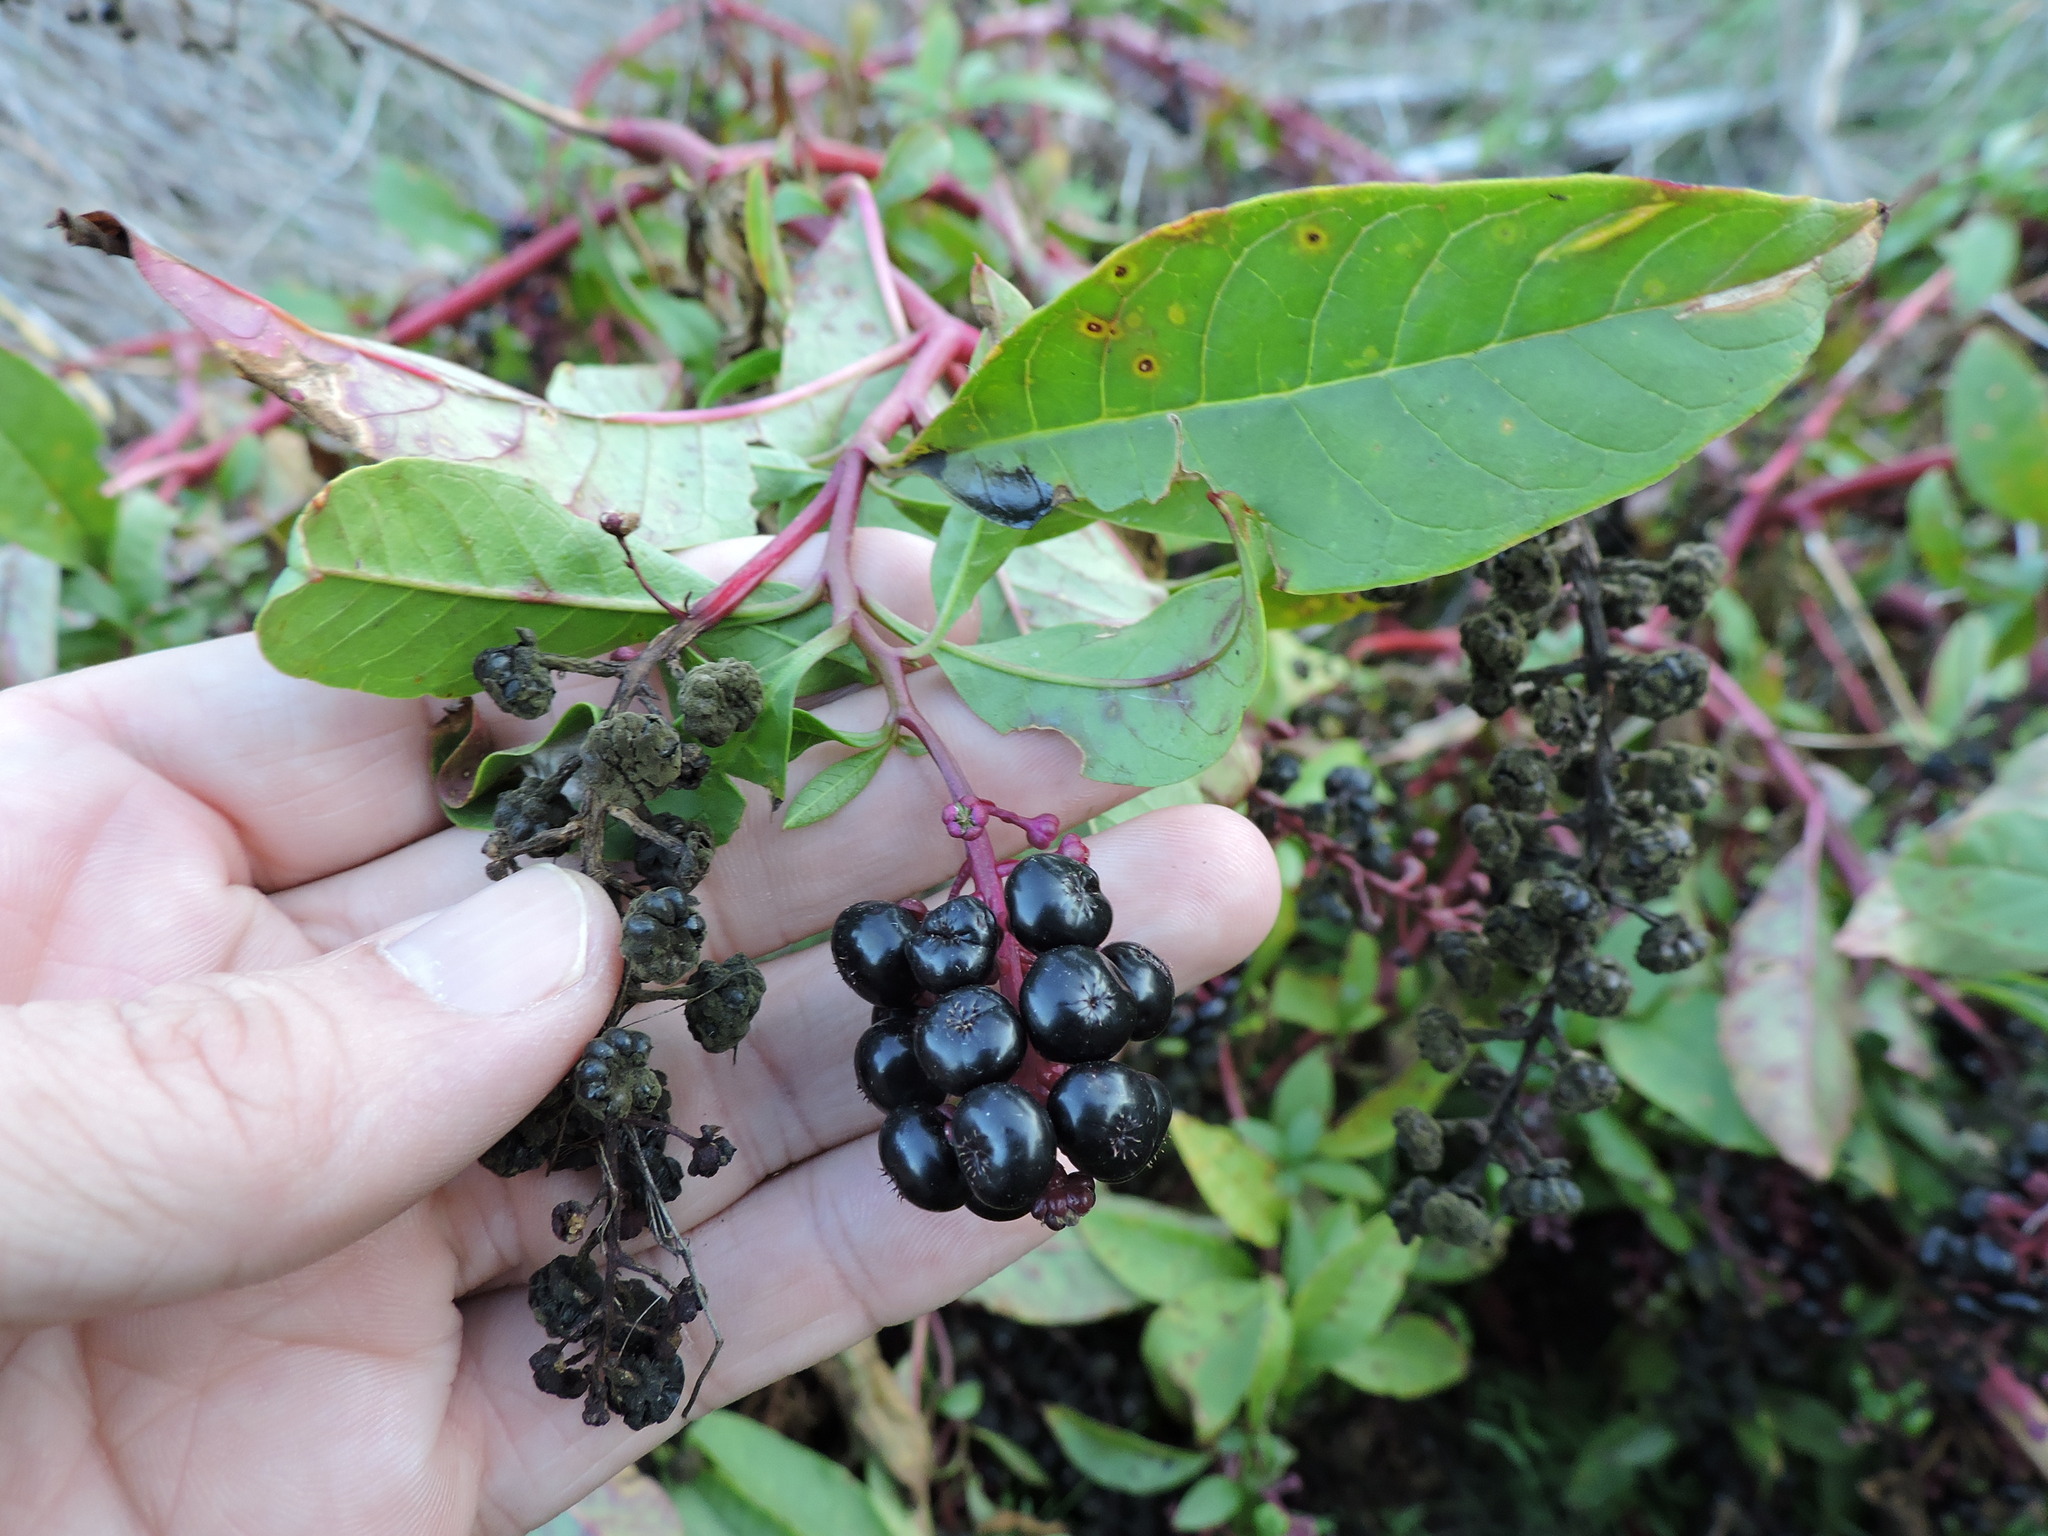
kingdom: Plantae
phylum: Tracheophyta
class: Magnoliopsida
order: Caryophyllales
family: Phytolaccaceae
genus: Phytolacca
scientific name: Phytolacca americana
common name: American pokeweed
